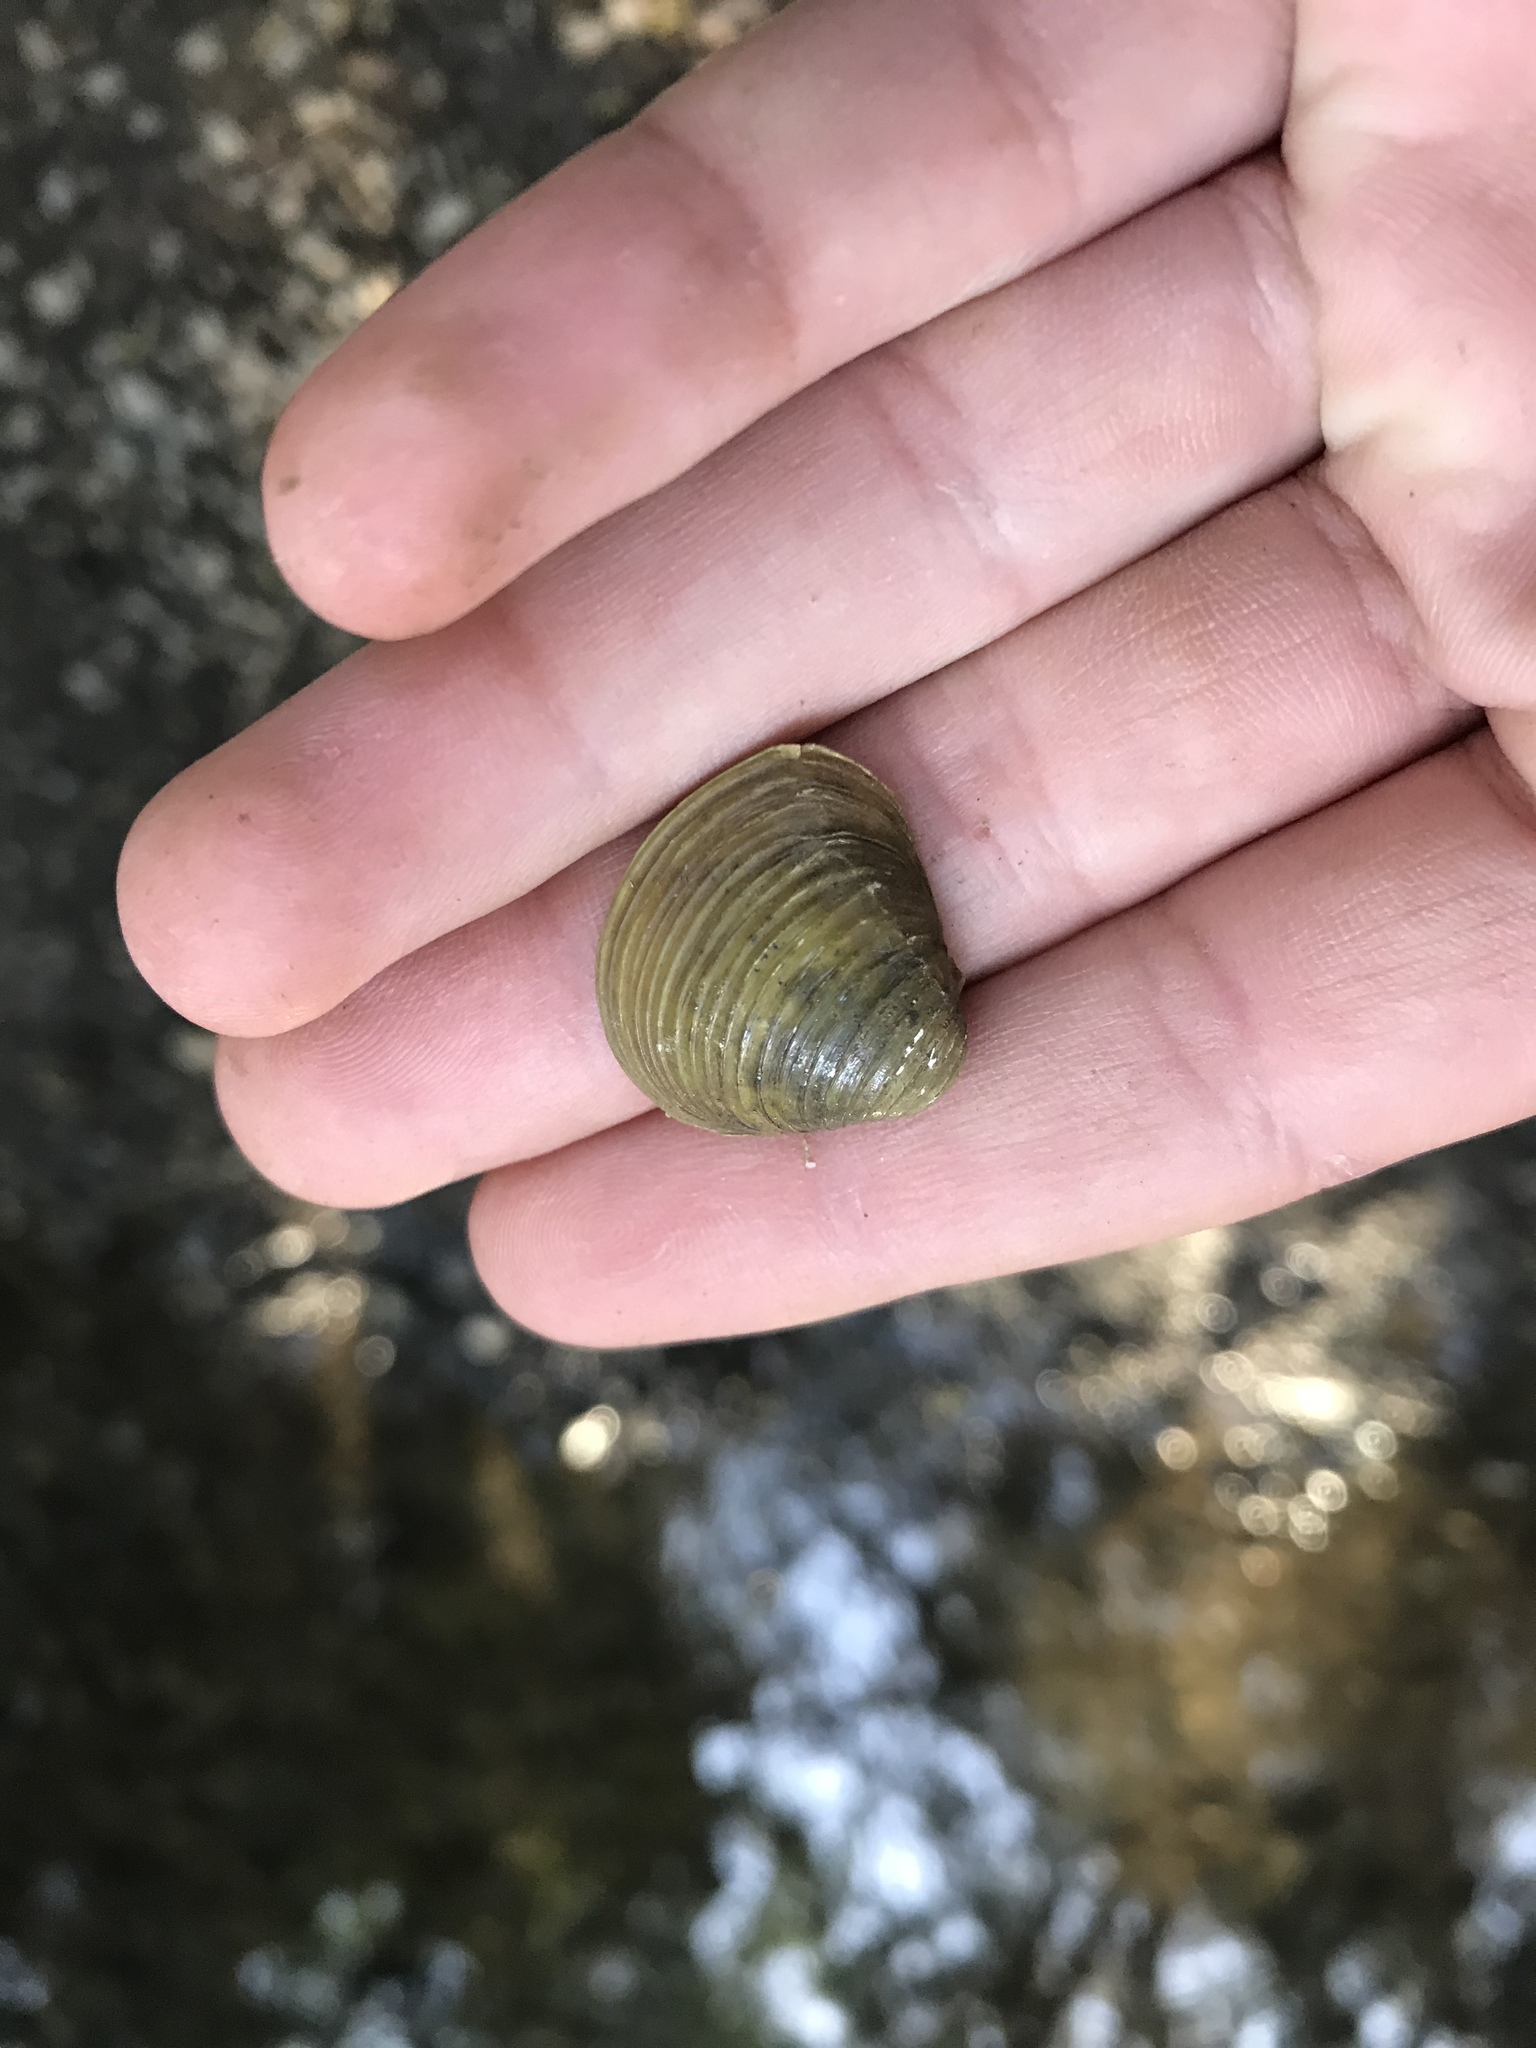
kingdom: Animalia
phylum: Mollusca
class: Bivalvia
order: Venerida
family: Cyrenidae
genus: Corbicula
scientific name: Corbicula fluminea
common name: Asian clam
